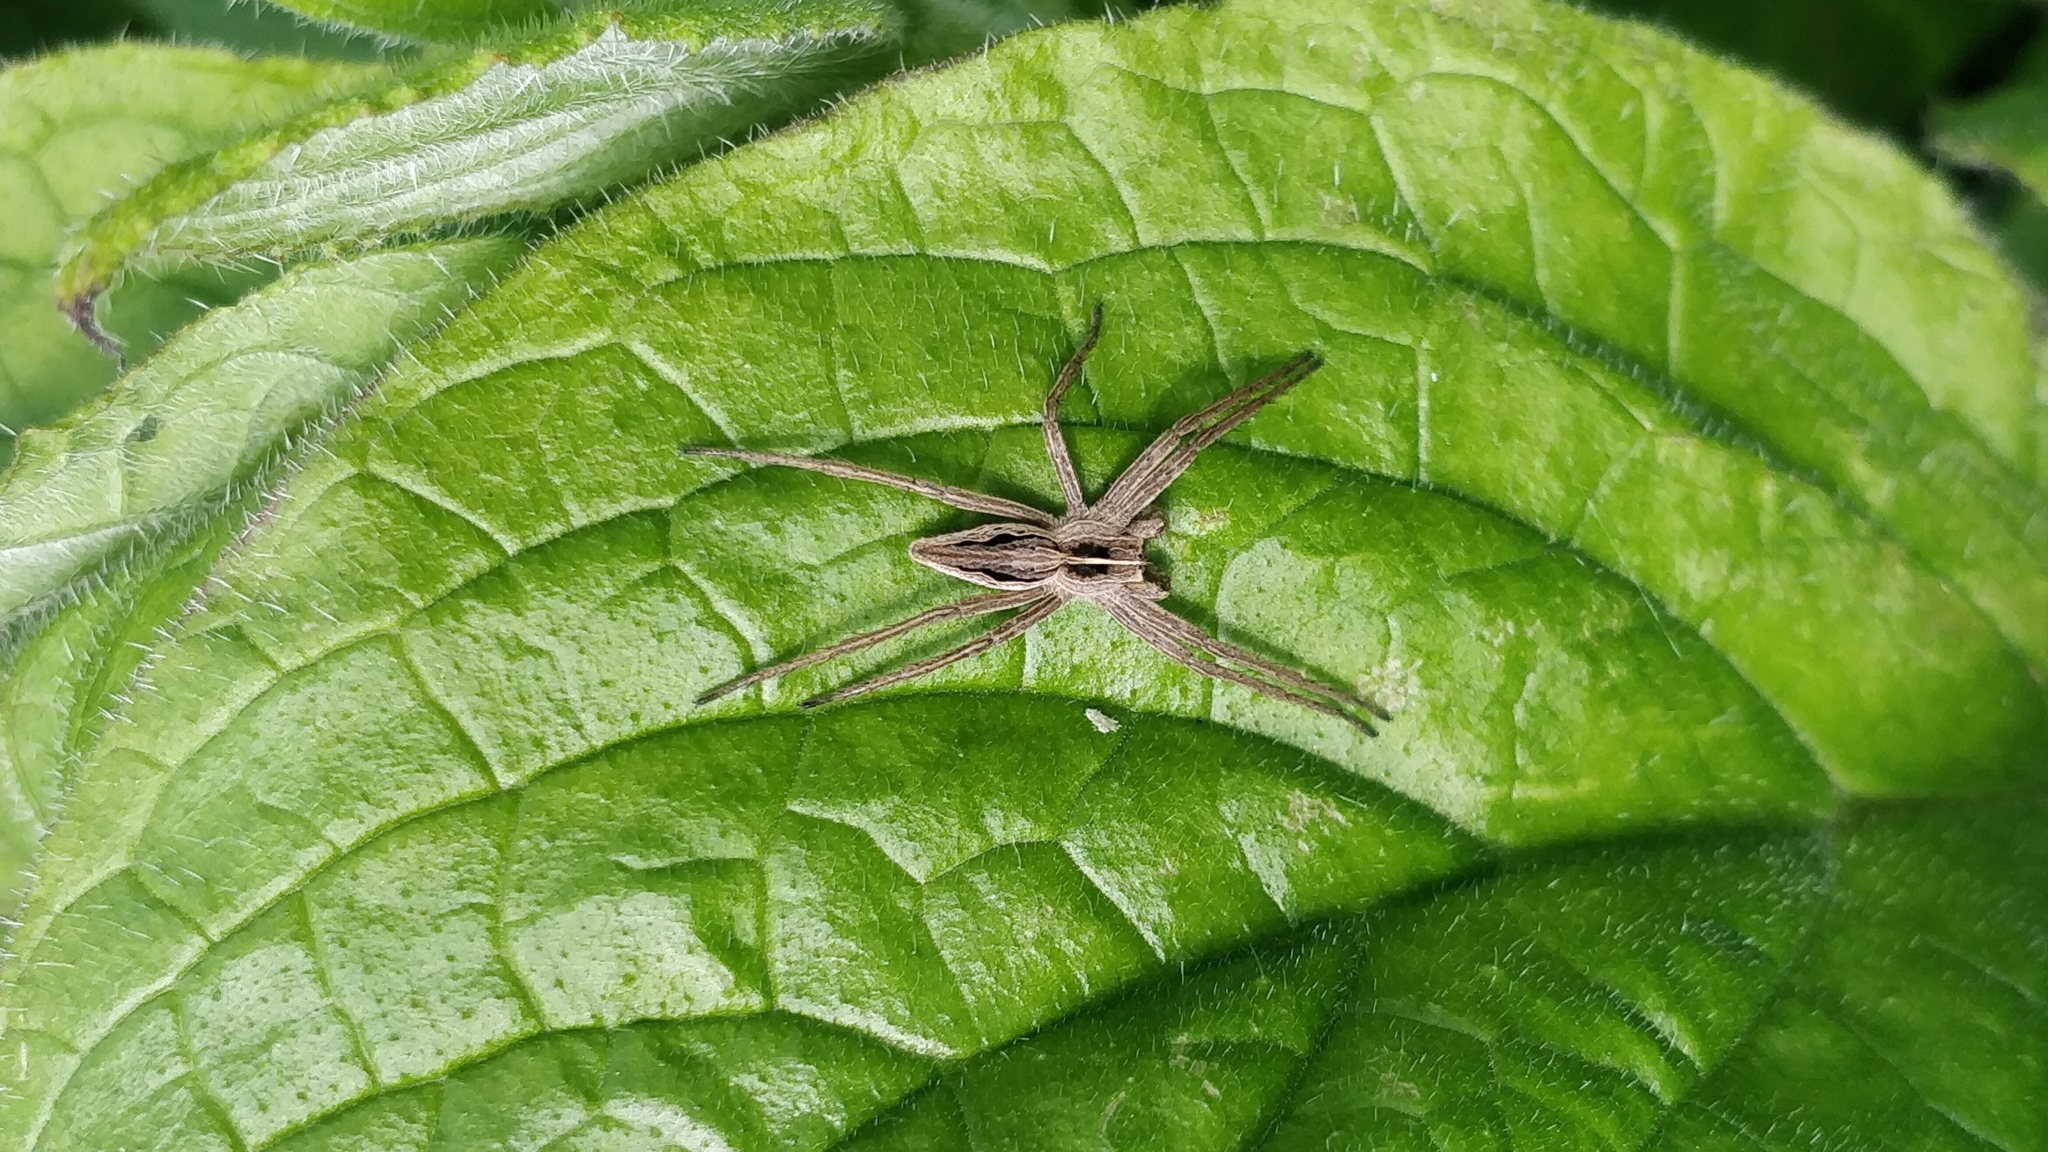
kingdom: Animalia
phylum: Arthropoda
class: Arachnida
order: Araneae
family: Pisauridae
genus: Pisaura
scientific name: Pisaura mirabilis
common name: Tent spider
